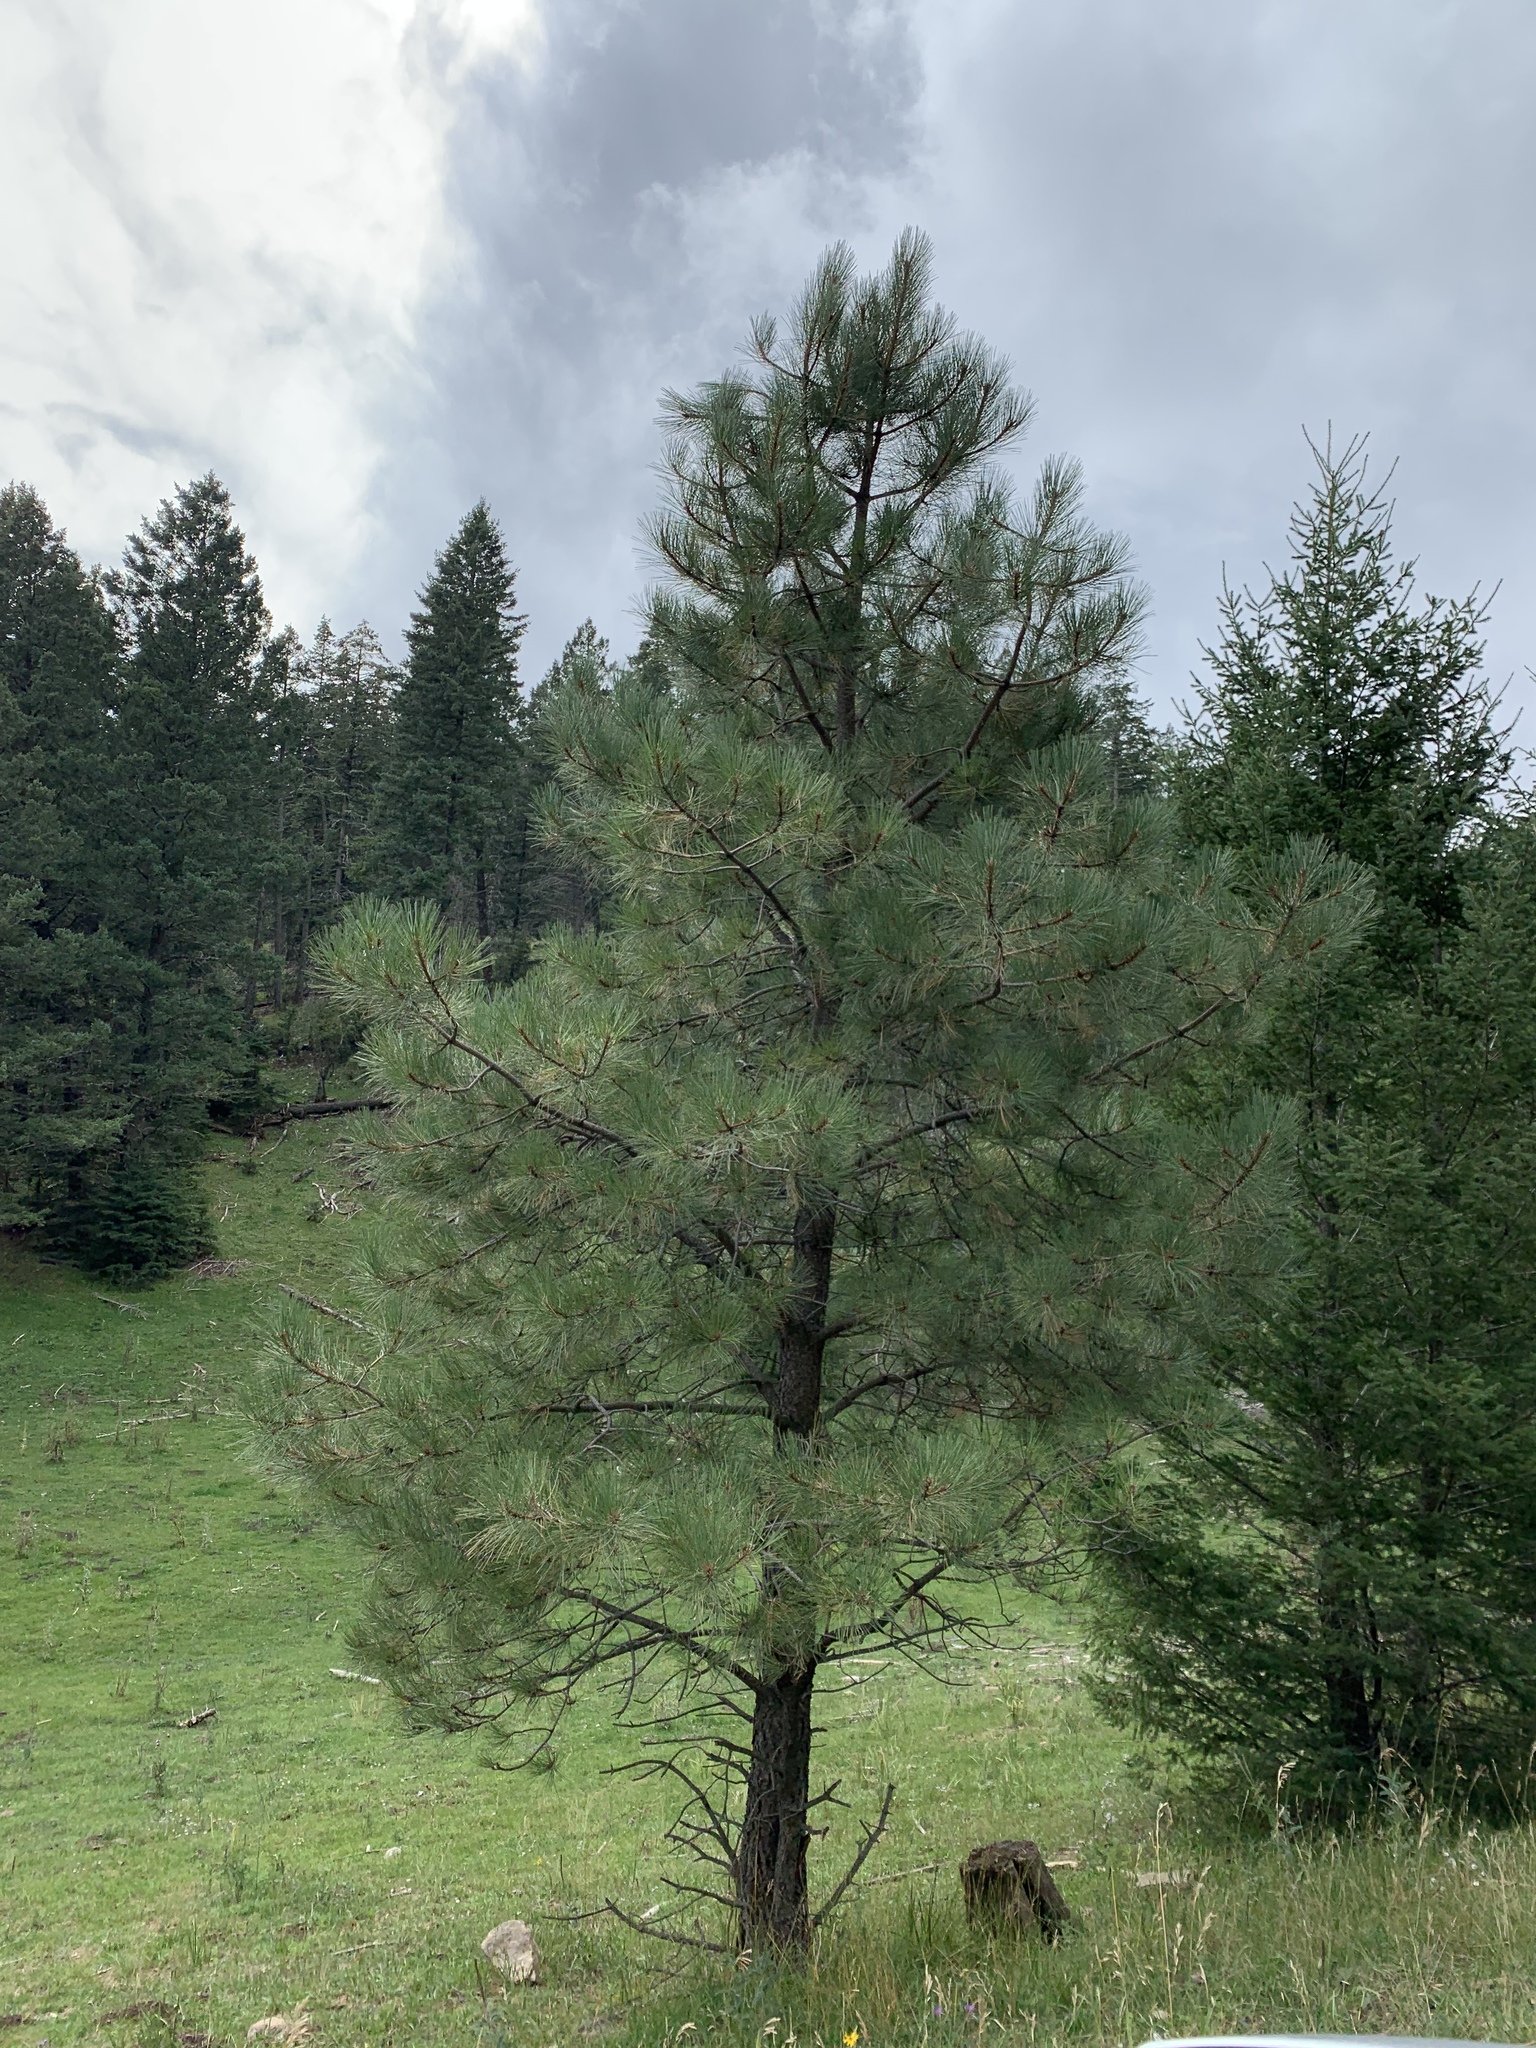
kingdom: Plantae
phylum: Tracheophyta
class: Pinopsida
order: Pinales
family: Pinaceae
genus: Pinus
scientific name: Pinus ponderosa
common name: Western yellow-pine
